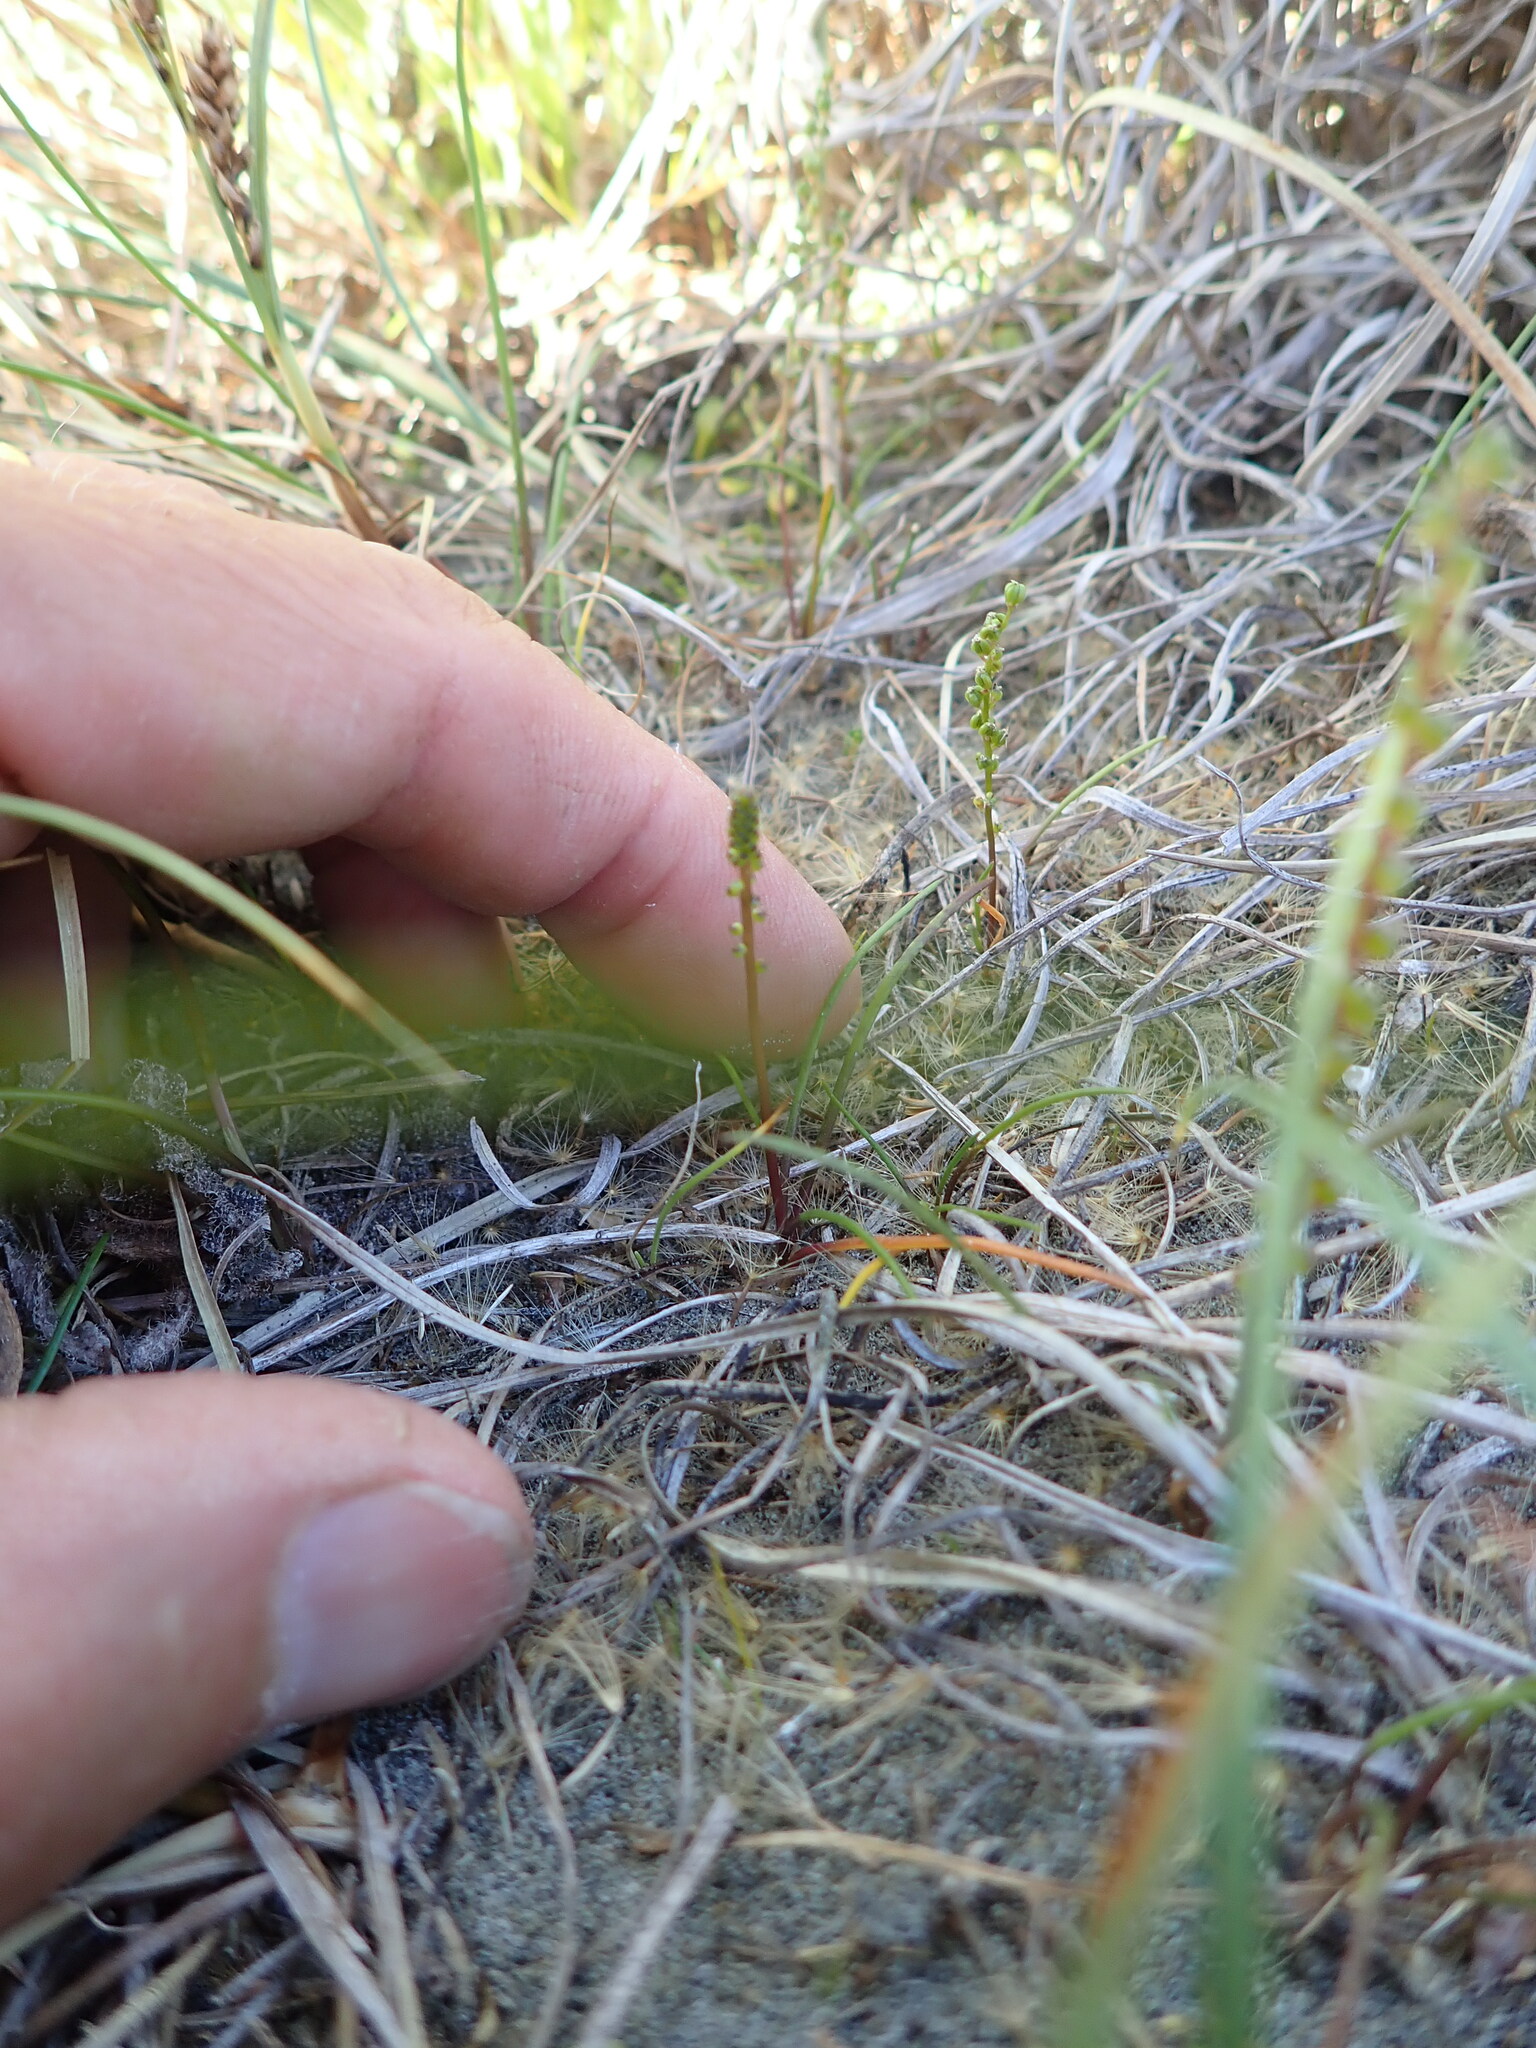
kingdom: Plantae
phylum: Tracheophyta
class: Liliopsida
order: Alismatales
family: Juncaginaceae
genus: Triglochin
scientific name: Triglochin striata
